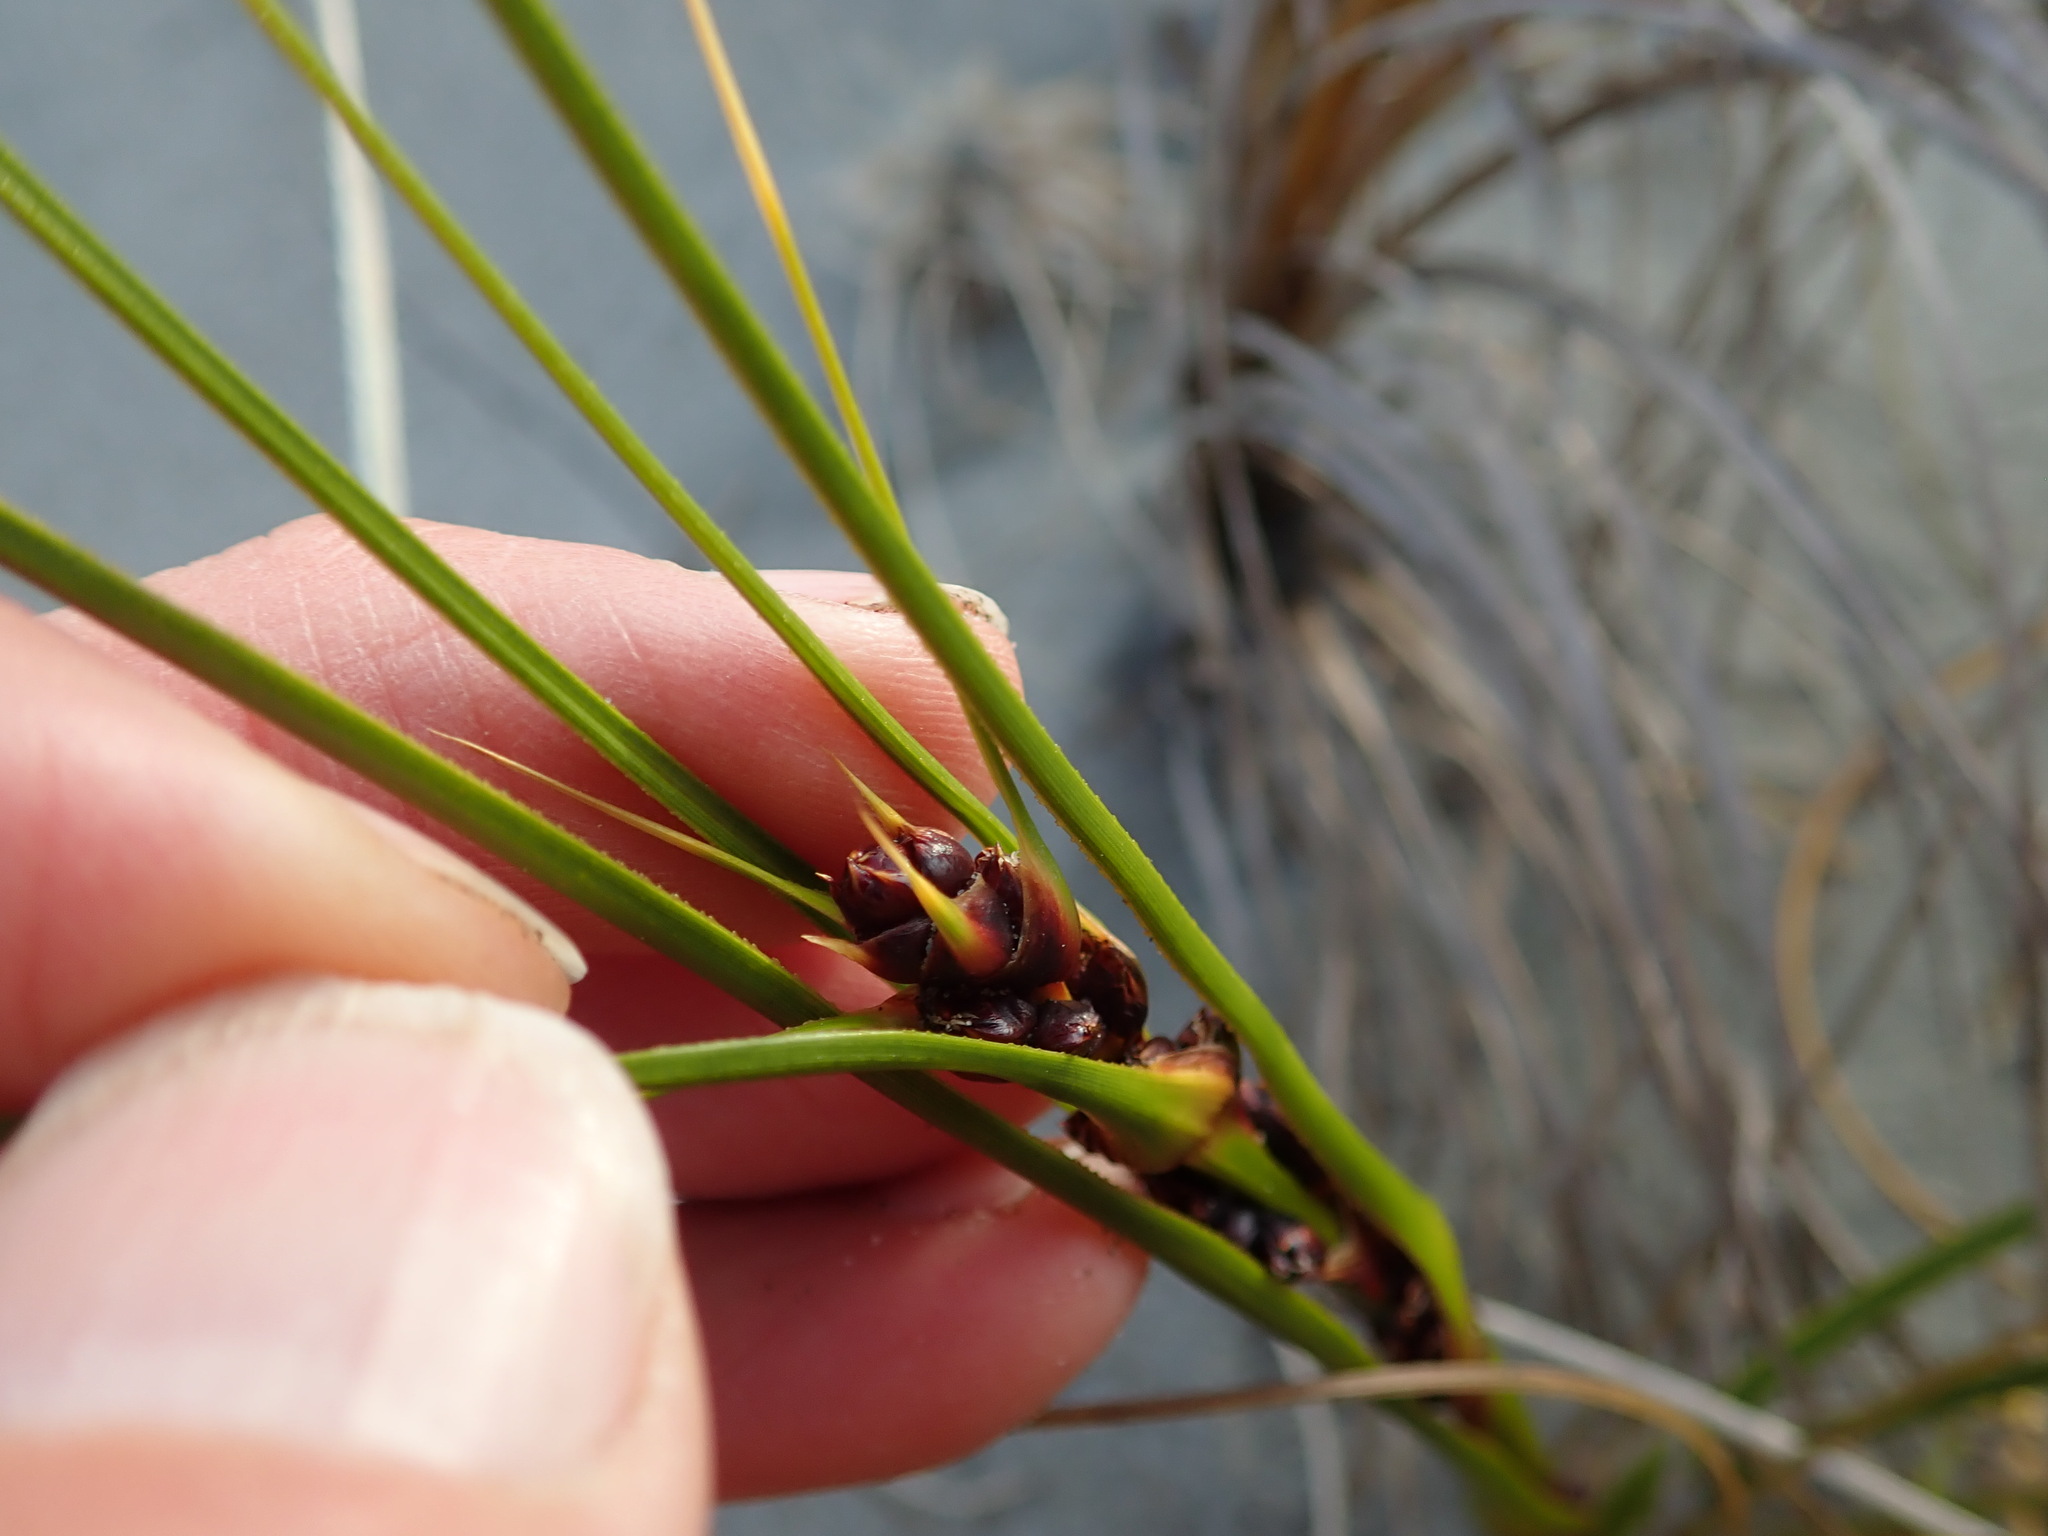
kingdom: Plantae
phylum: Tracheophyta
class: Liliopsida
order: Poales
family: Cyperaceae
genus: Ficinia
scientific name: Ficinia spiralis
